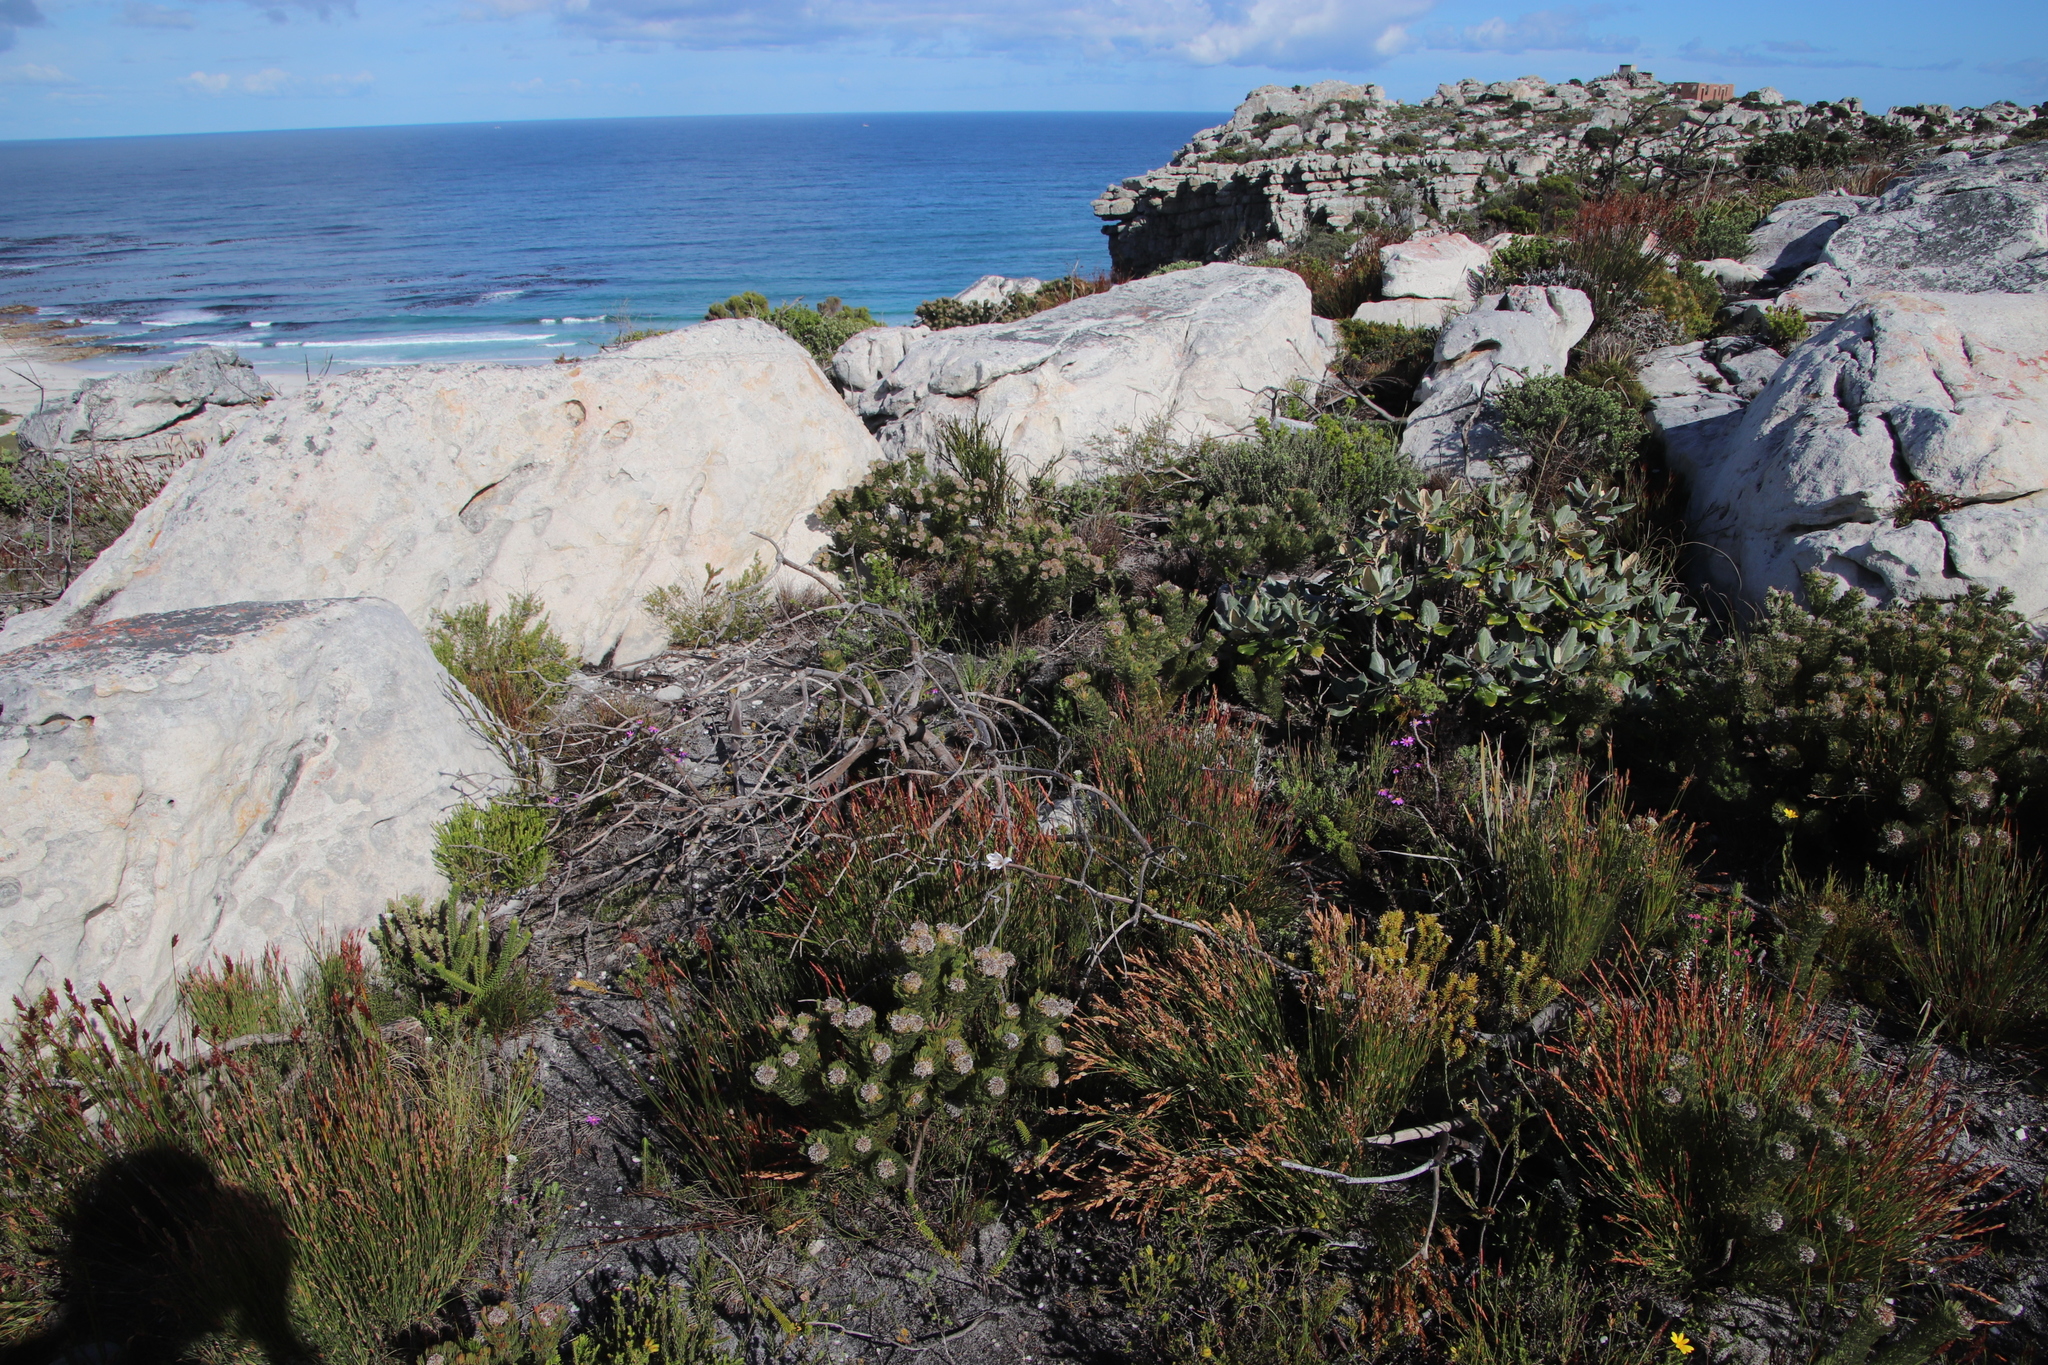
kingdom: Plantae
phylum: Tracheophyta
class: Magnoliopsida
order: Proteales
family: Proteaceae
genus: Serruria
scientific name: Serruria villosa
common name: Golden spiderhead
